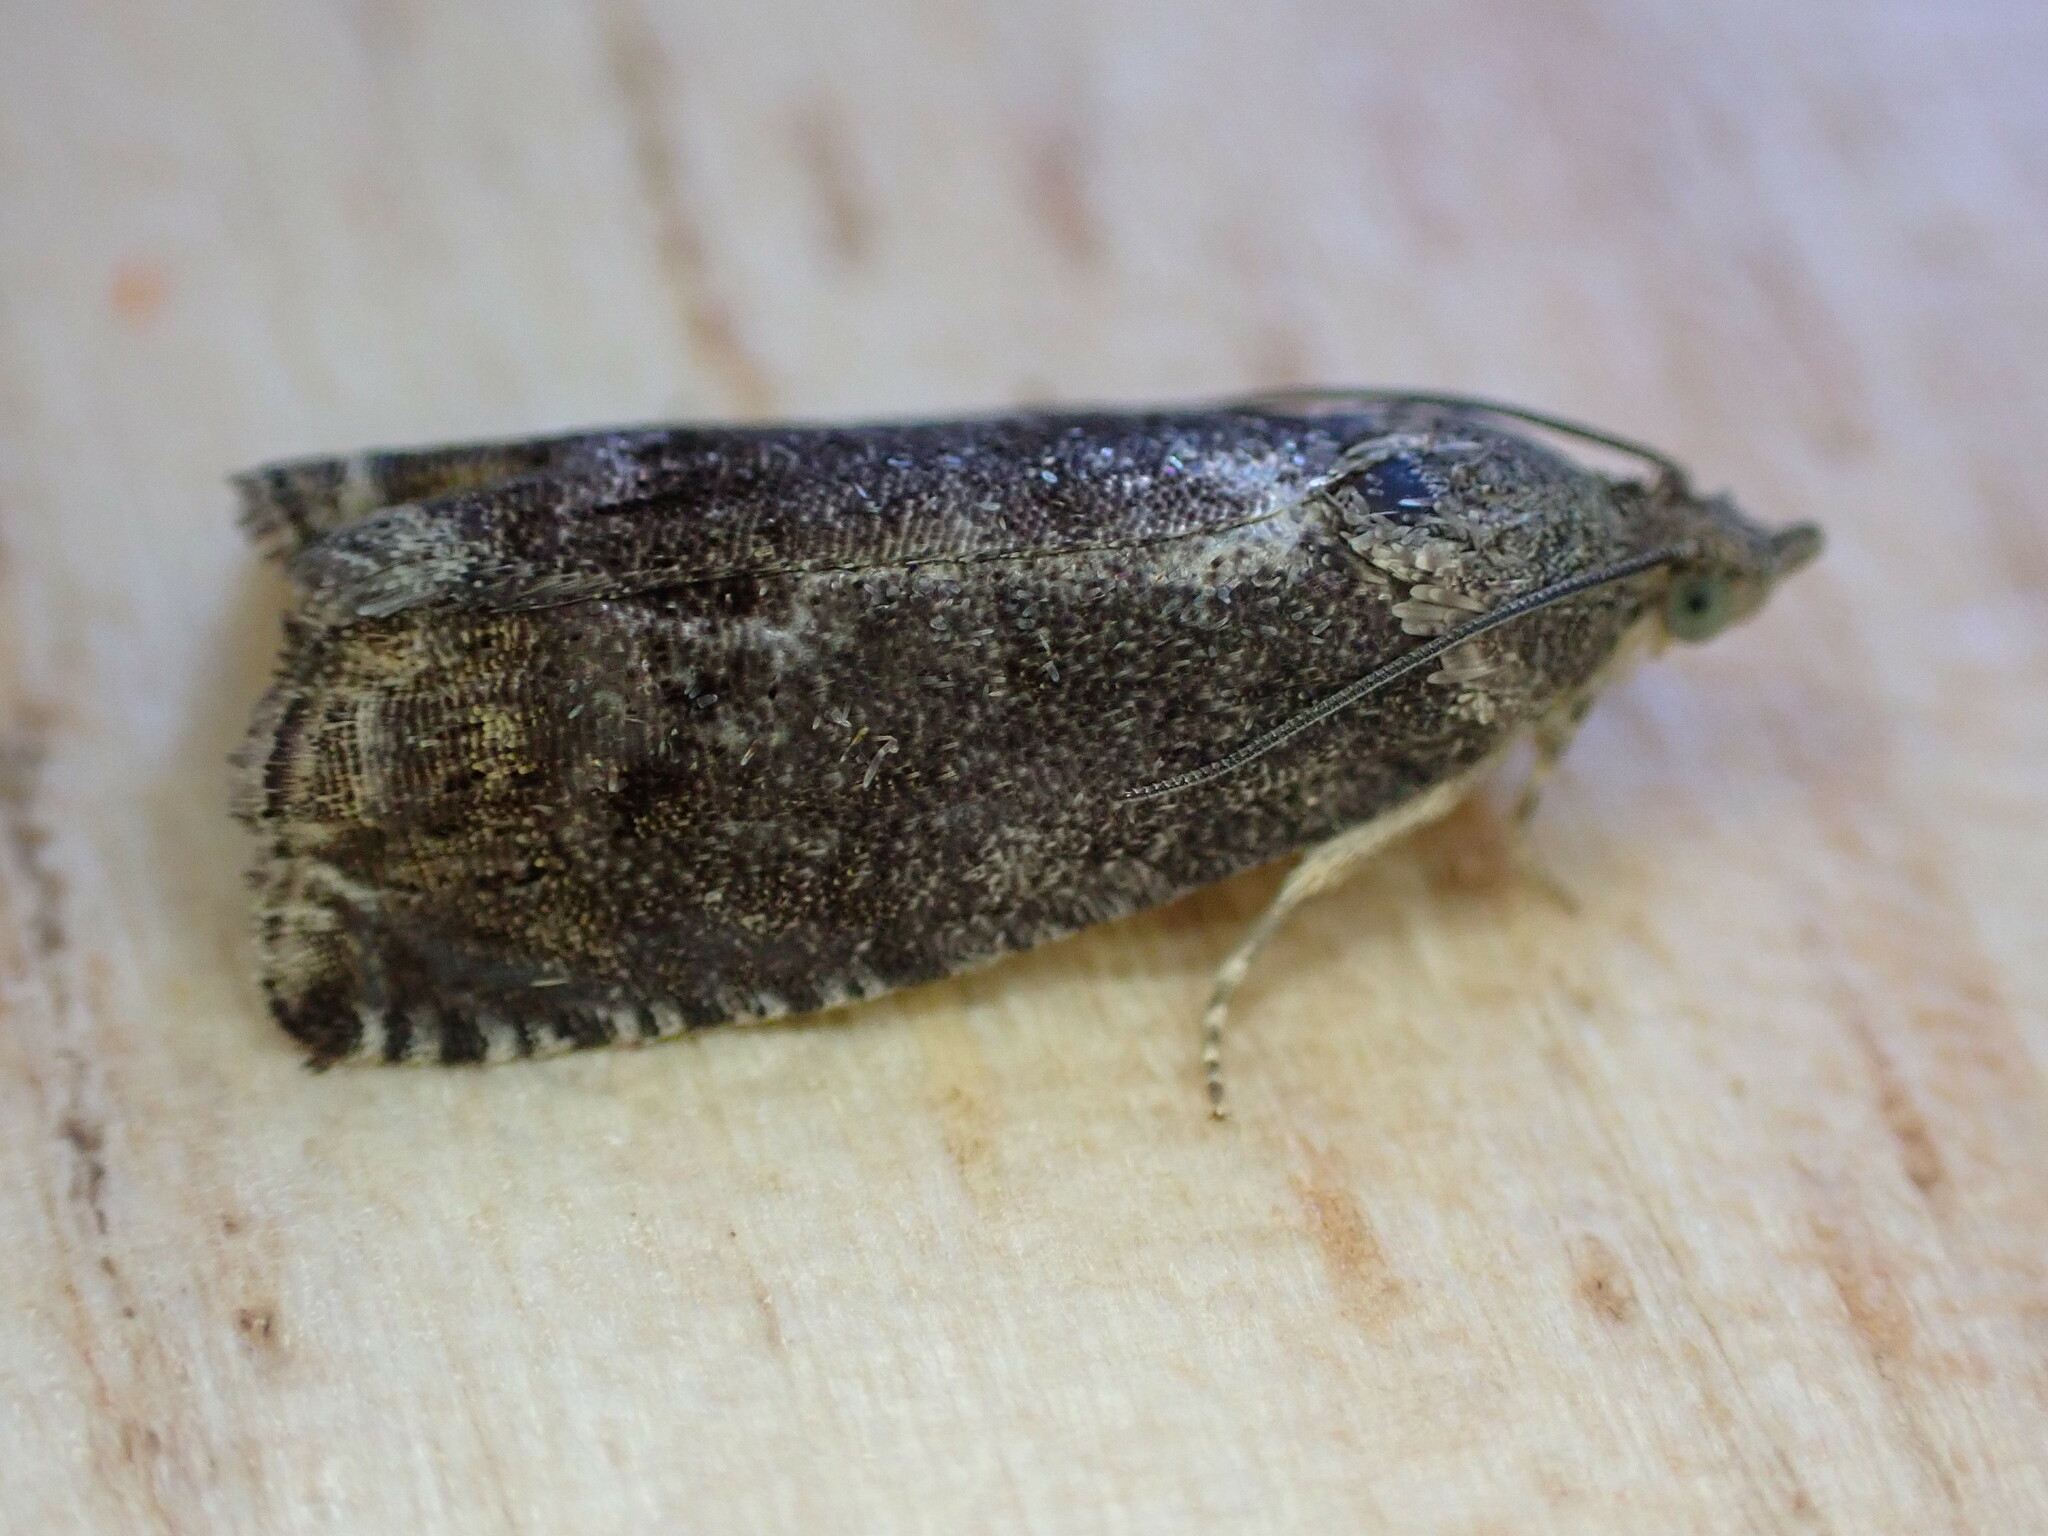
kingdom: Animalia
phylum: Arthropoda
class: Insecta
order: Lepidoptera
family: Tortricidae
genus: Cydia
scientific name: Cydia splendana
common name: De: kastanienwickler, eichenwickler es: oruga de la castaña fr: carpocapse des châtaignes it: cidia o tortrice tardiva delle castagne pt: bichado das castanhas gb: acorn moth, chestnut fruit tortrix
